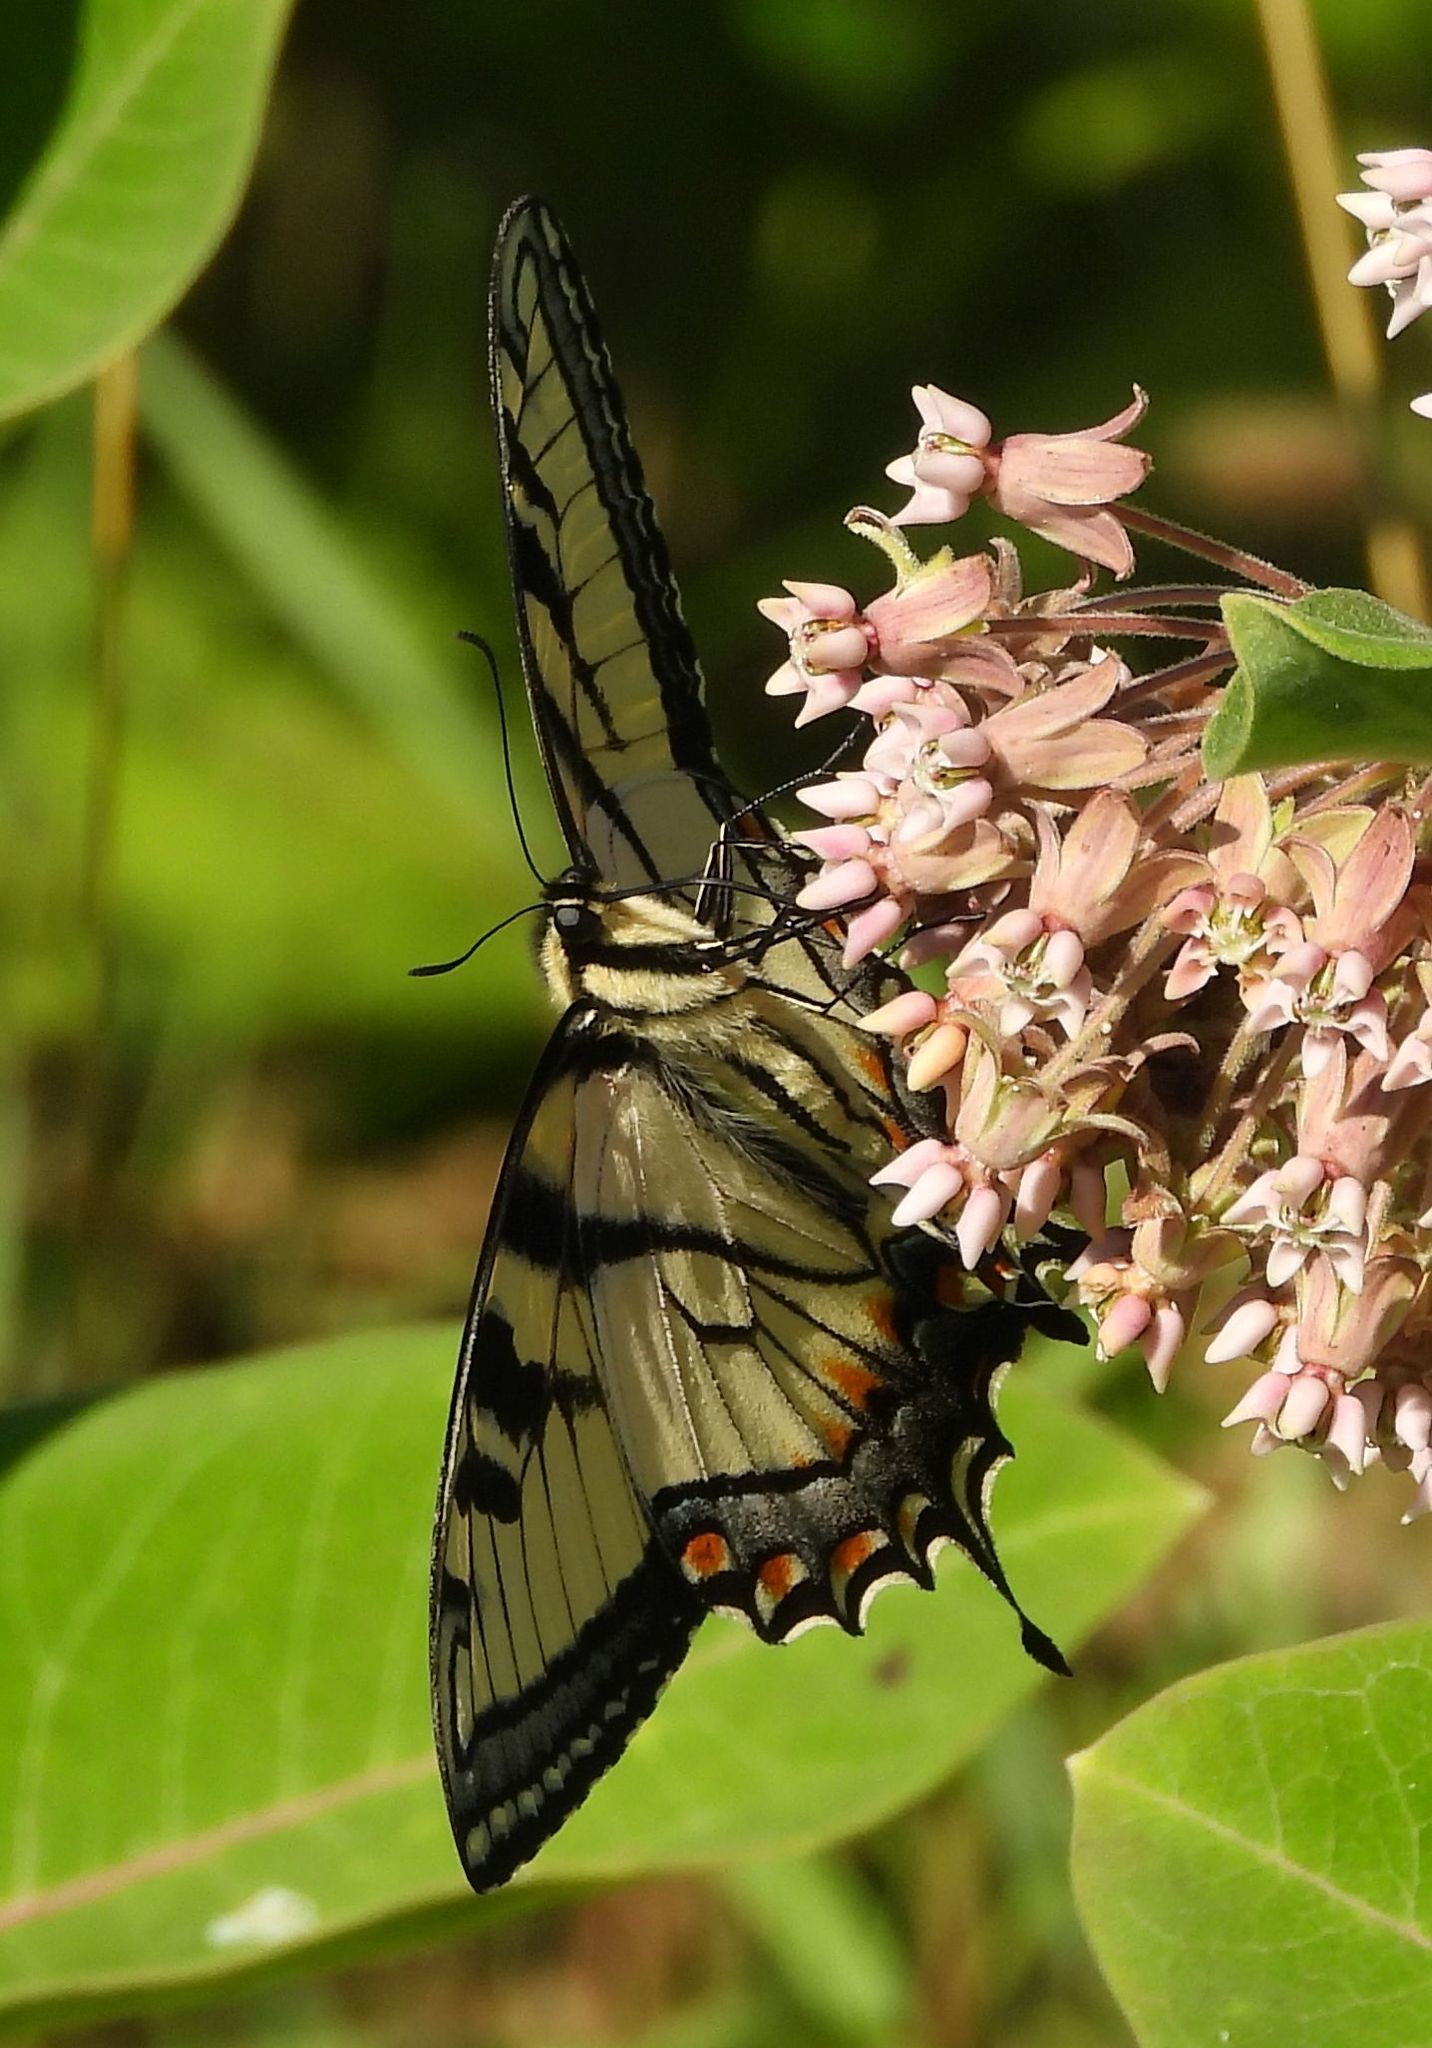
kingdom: Animalia
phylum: Arthropoda
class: Insecta
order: Lepidoptera
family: Papilionidae
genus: Papilio
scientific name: Papilio
